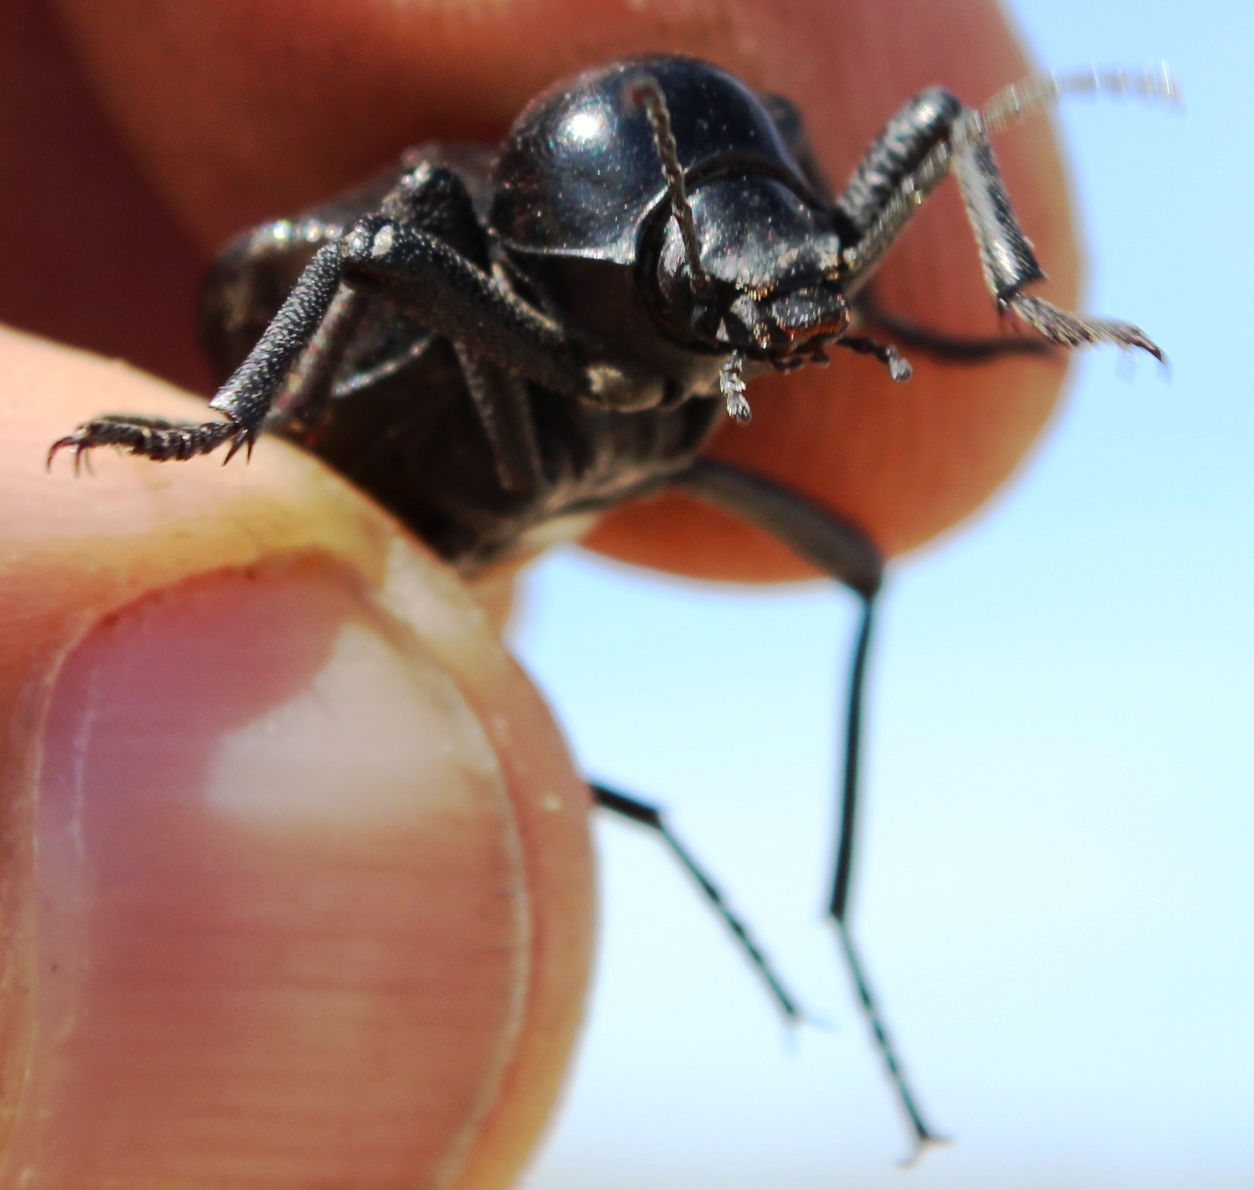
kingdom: Animalia
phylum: Arthropoda
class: Insecta
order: Coleoptera
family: Tenebrionidae
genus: Moluris
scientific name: Moluris gibba
